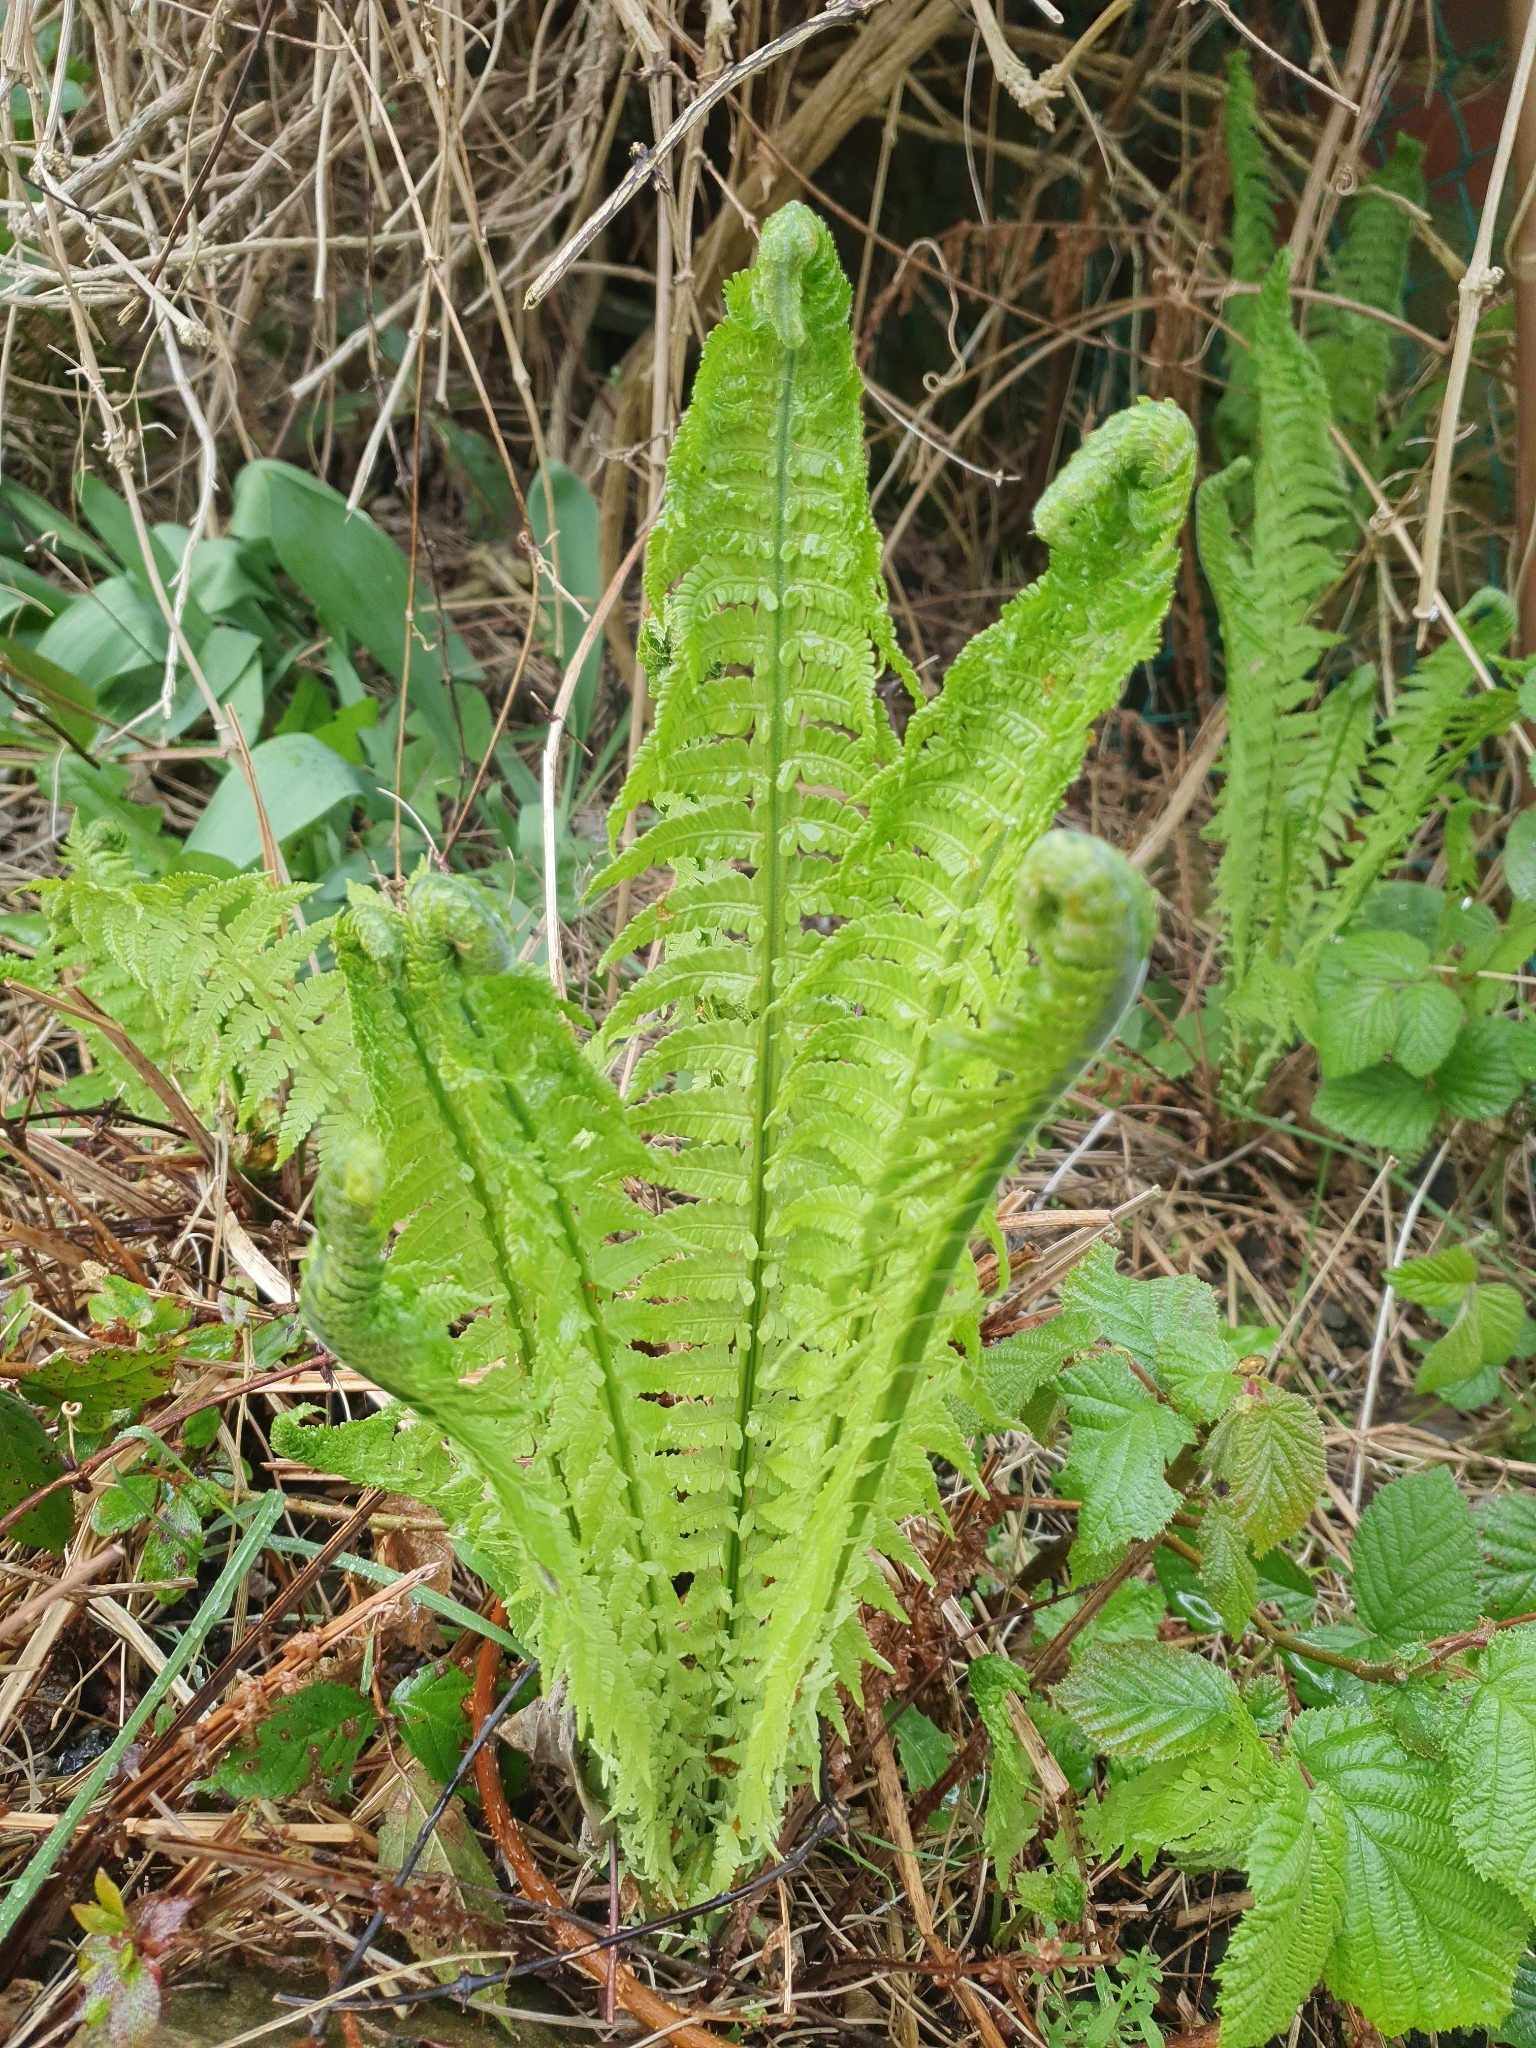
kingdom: Plantae
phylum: Tracheophyta
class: Polypodiopsida
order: Polypodiales
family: Onocleaceae
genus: Matteuccia
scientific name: Matteuccia struthiopteris
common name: Ostrich fern
